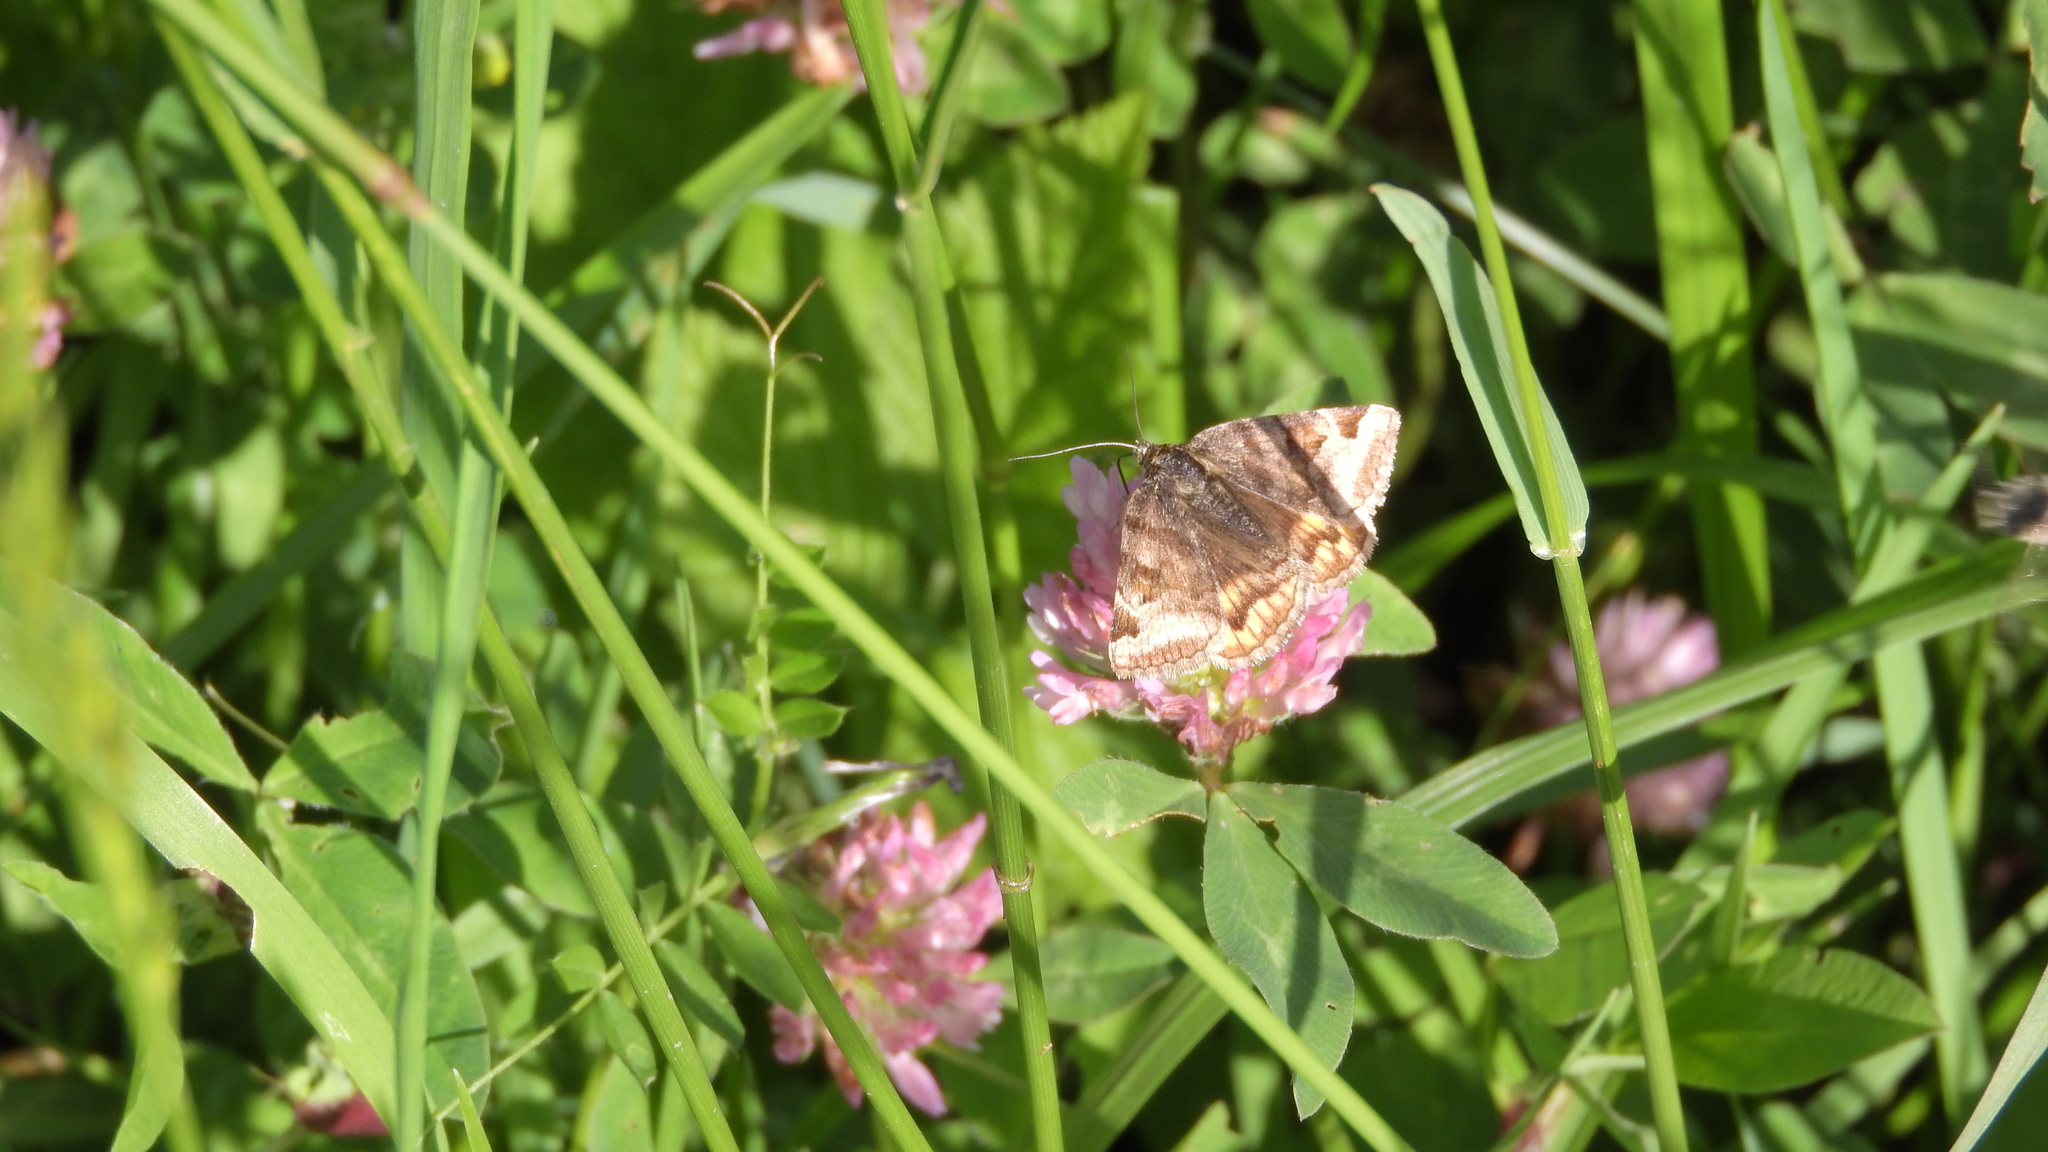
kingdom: Animalia
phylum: Arthropoda
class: Insecta
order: Lepidoptera
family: Erebidae
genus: Euclidia
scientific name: Euclidia glyphica
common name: Burnet companion
